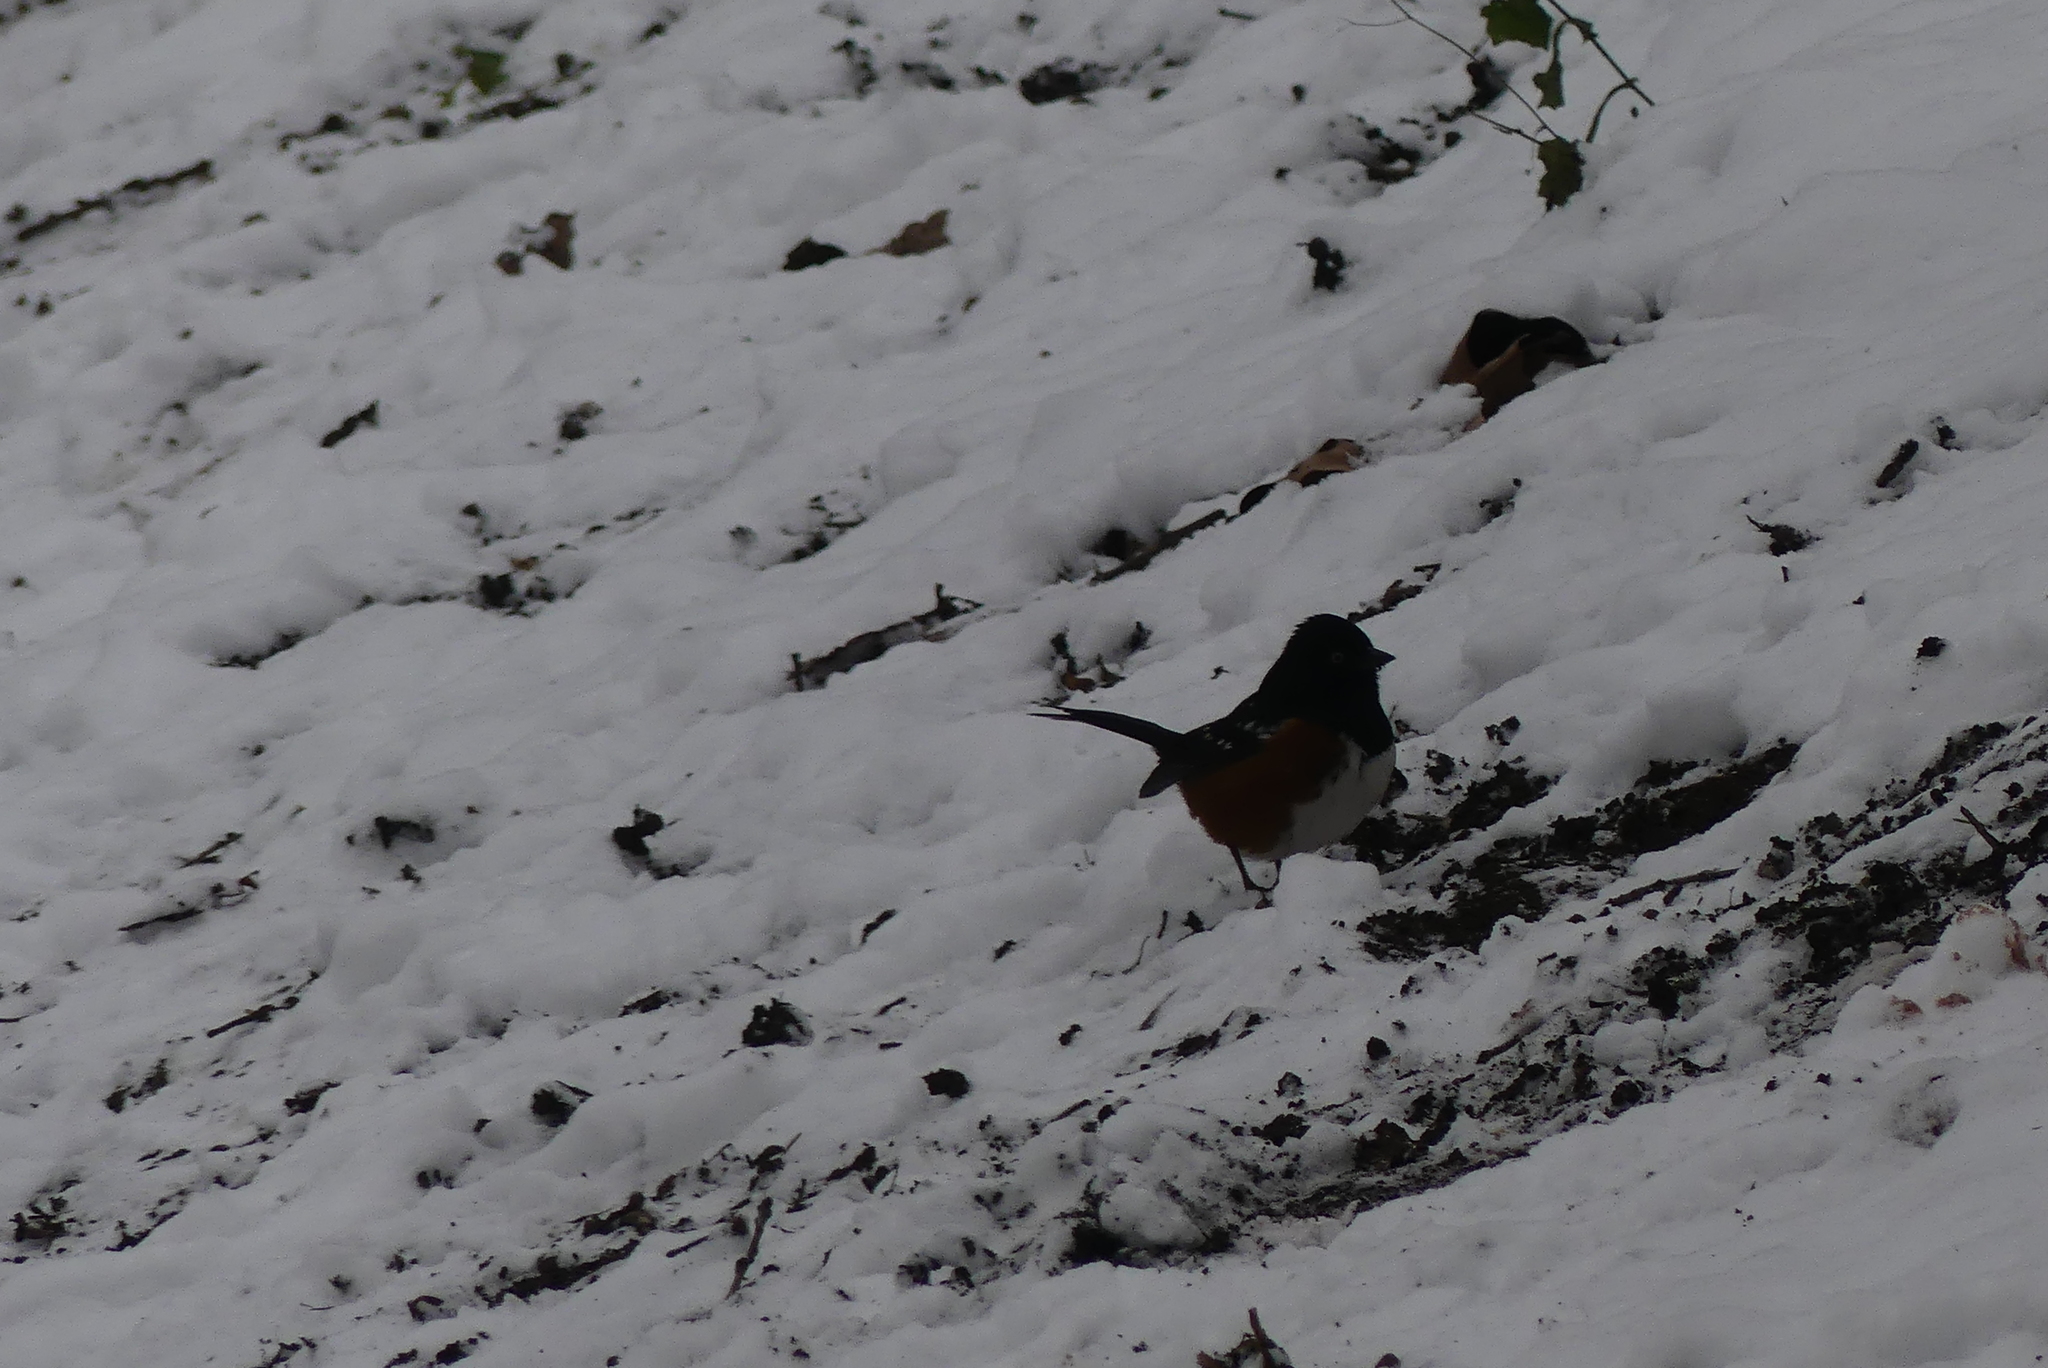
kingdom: Animalia
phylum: Chordata
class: Aves
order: Passeriformes
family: Passerellidae
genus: Pipilo
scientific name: Pipilo maculatus
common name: Spotted towhee
